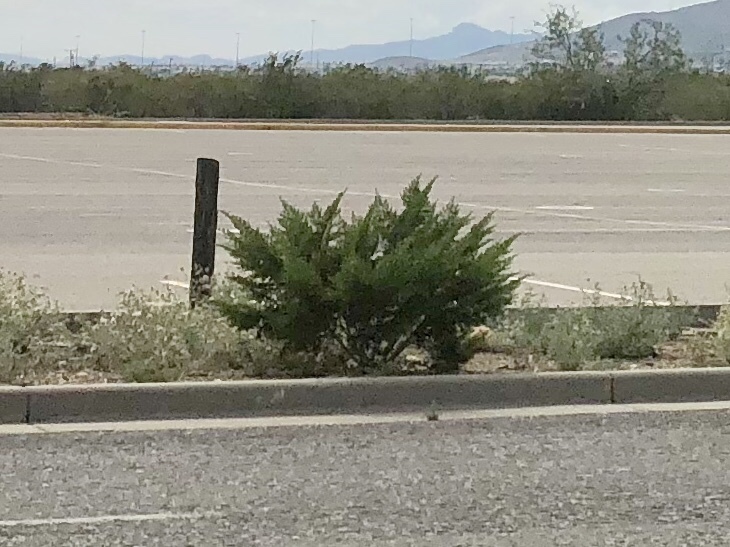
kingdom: Plantae
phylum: Tracheophyta
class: Magnoliopsida
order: Zygophyllales
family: Zygophyllaceae
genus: Larrea
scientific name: Larrea tridentata
